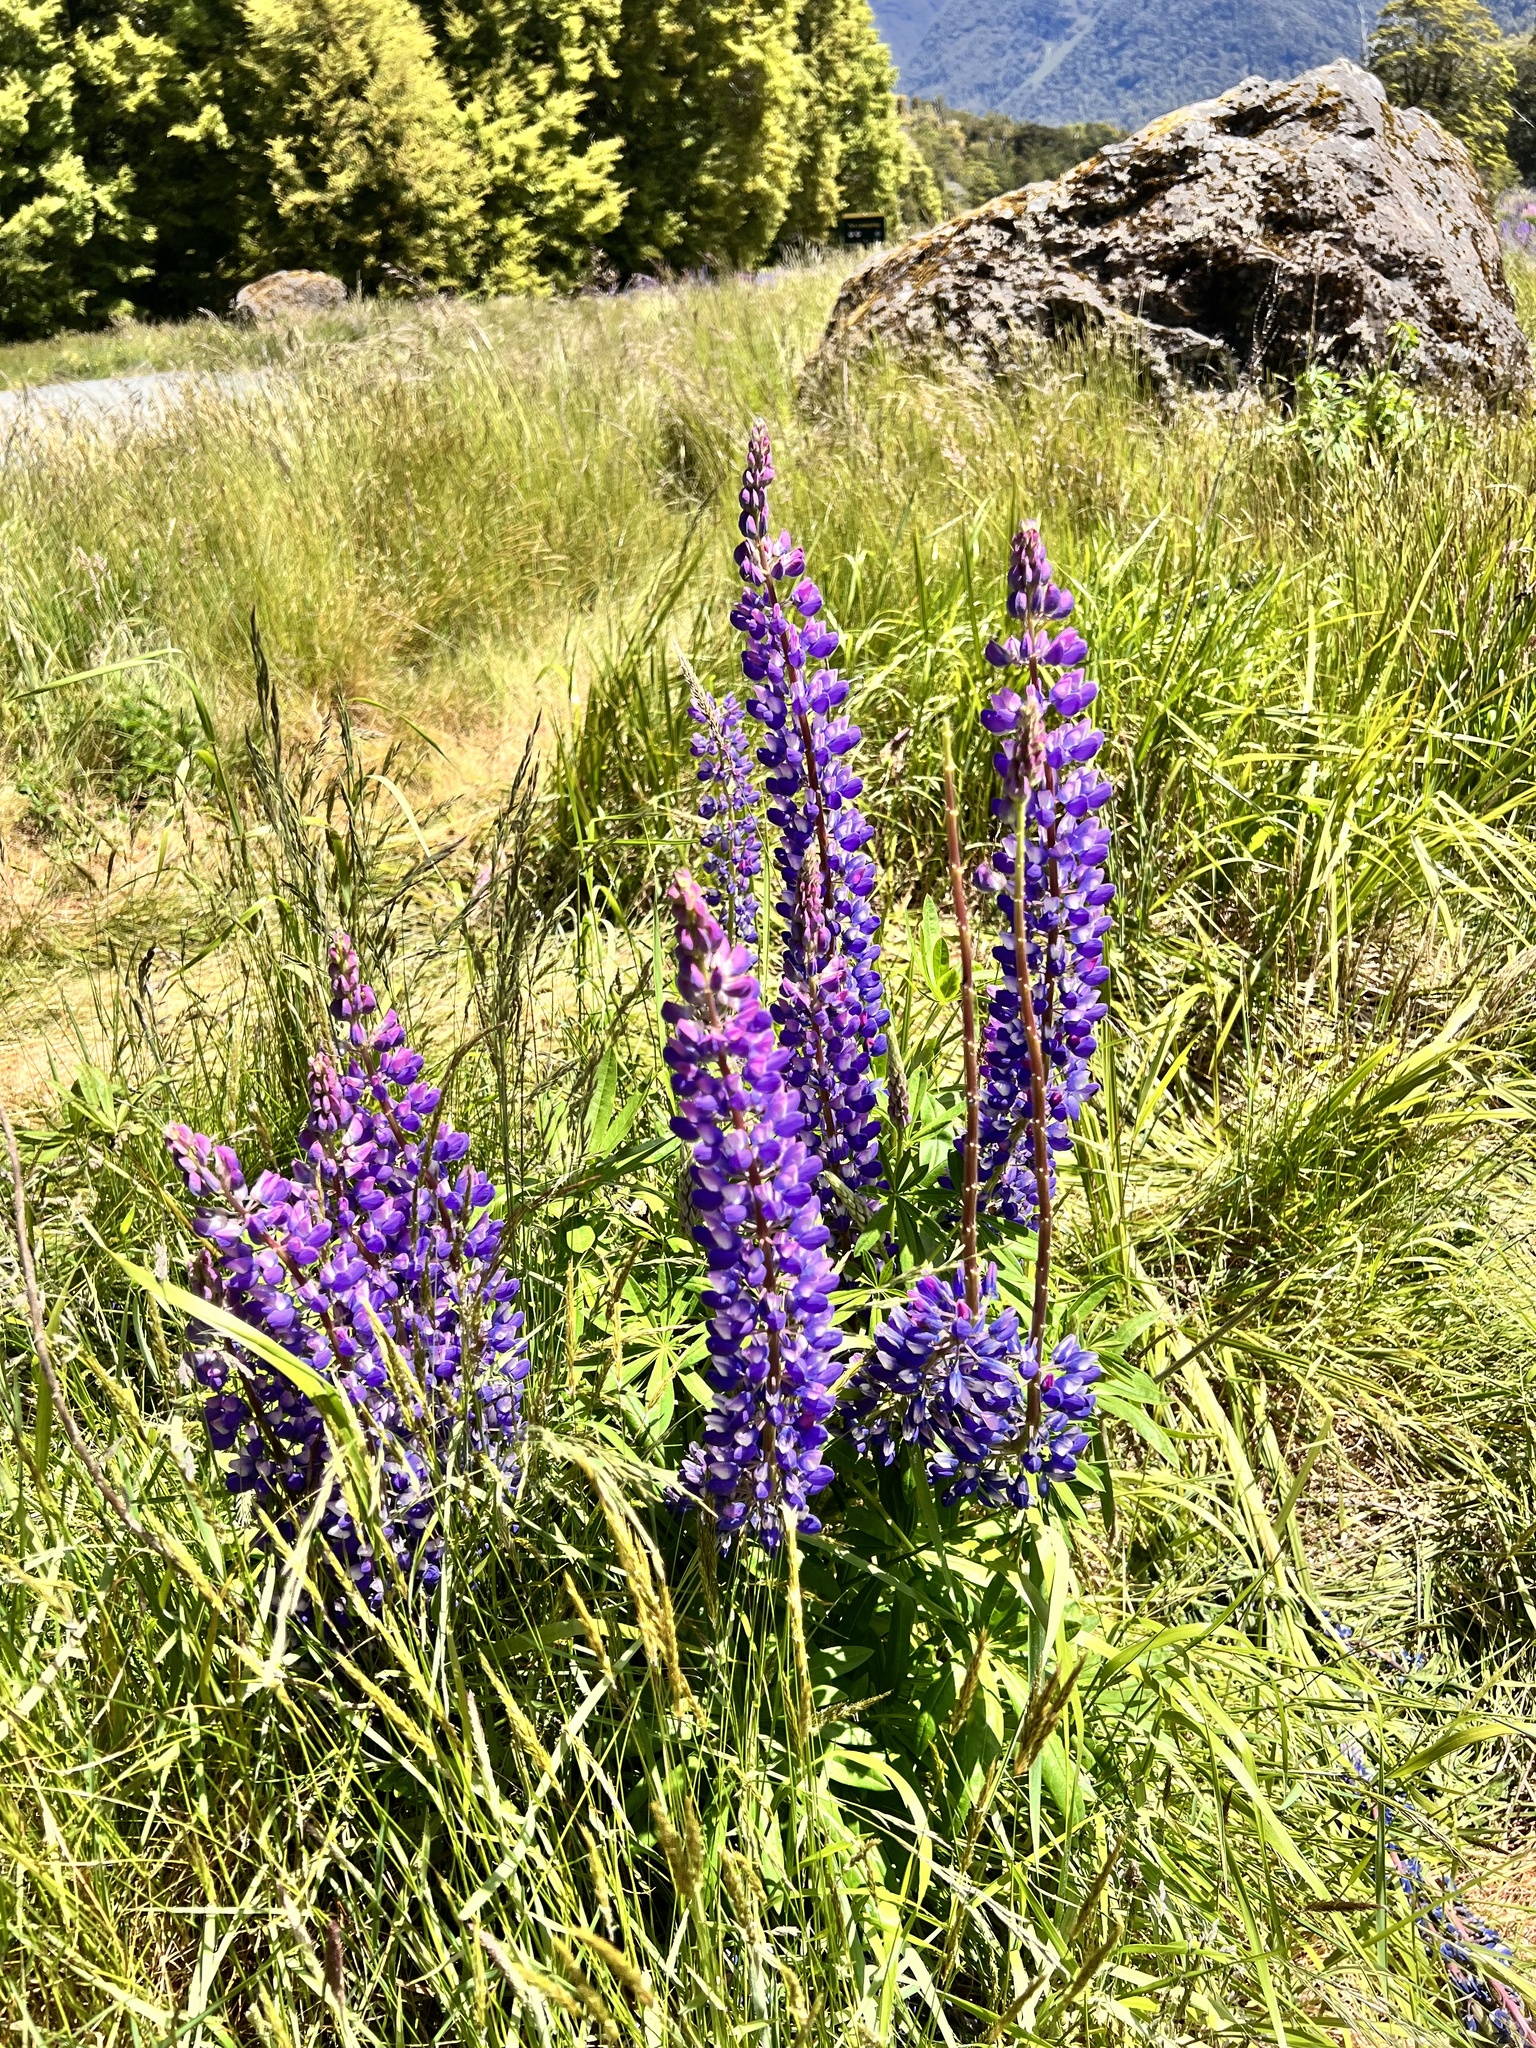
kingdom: Plantae
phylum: Tracheophyta
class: Magnoliopsida
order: Fabales
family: Fabaceae
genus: Lupinus
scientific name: Lupinus polyphyllus
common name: Garden lupin
